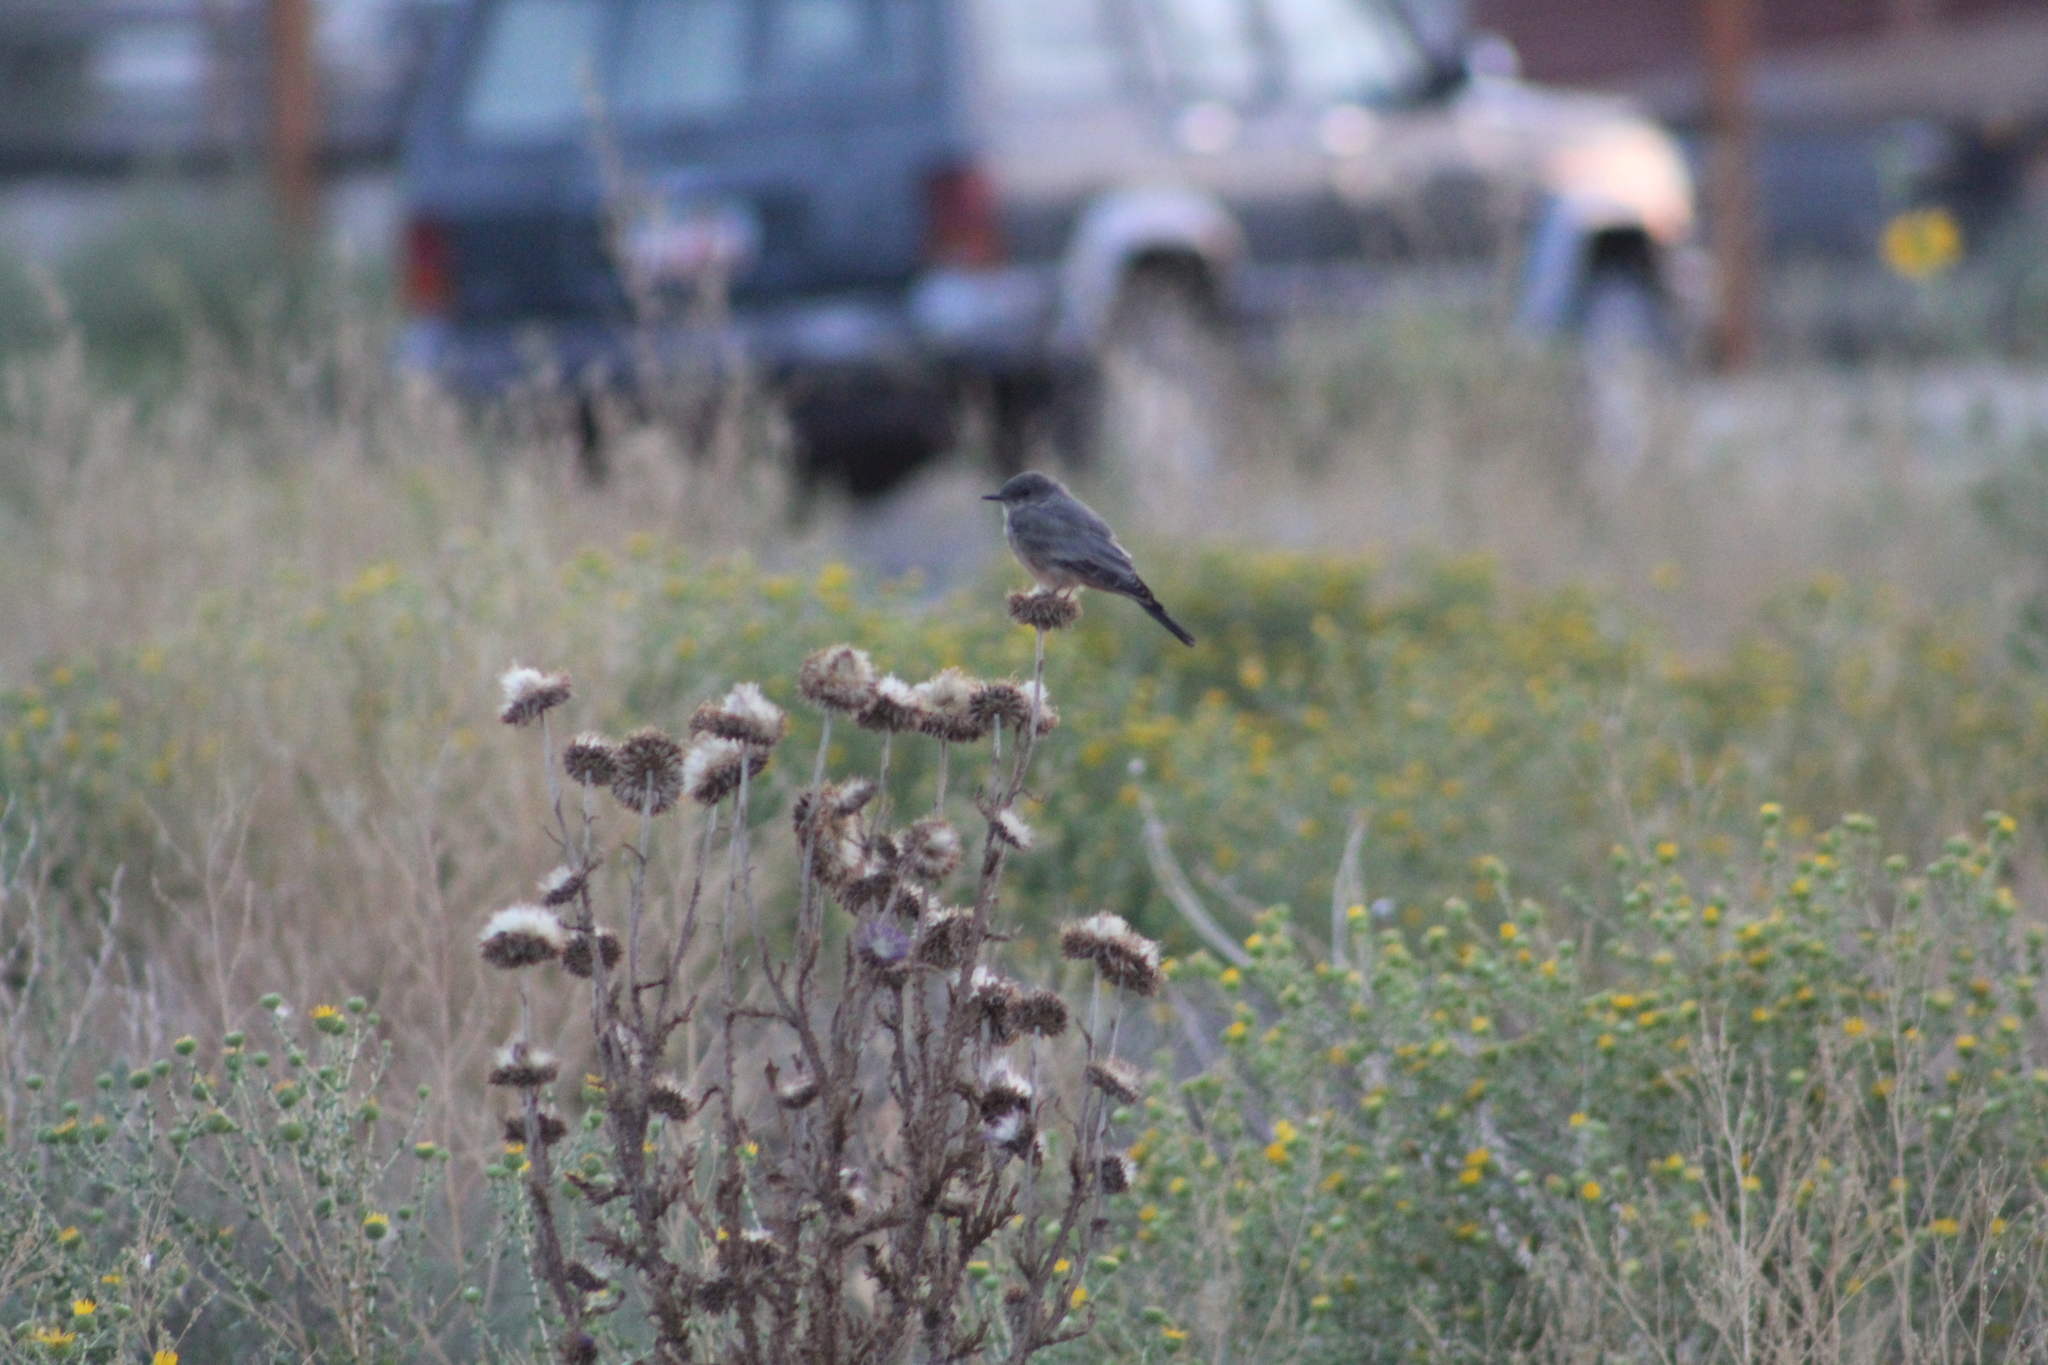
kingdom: Animalia
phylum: Chordata
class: Aves
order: Passeriformes
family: Tyrannidae
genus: Sayornis
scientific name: Sayornis saya
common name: Say's phoebe
